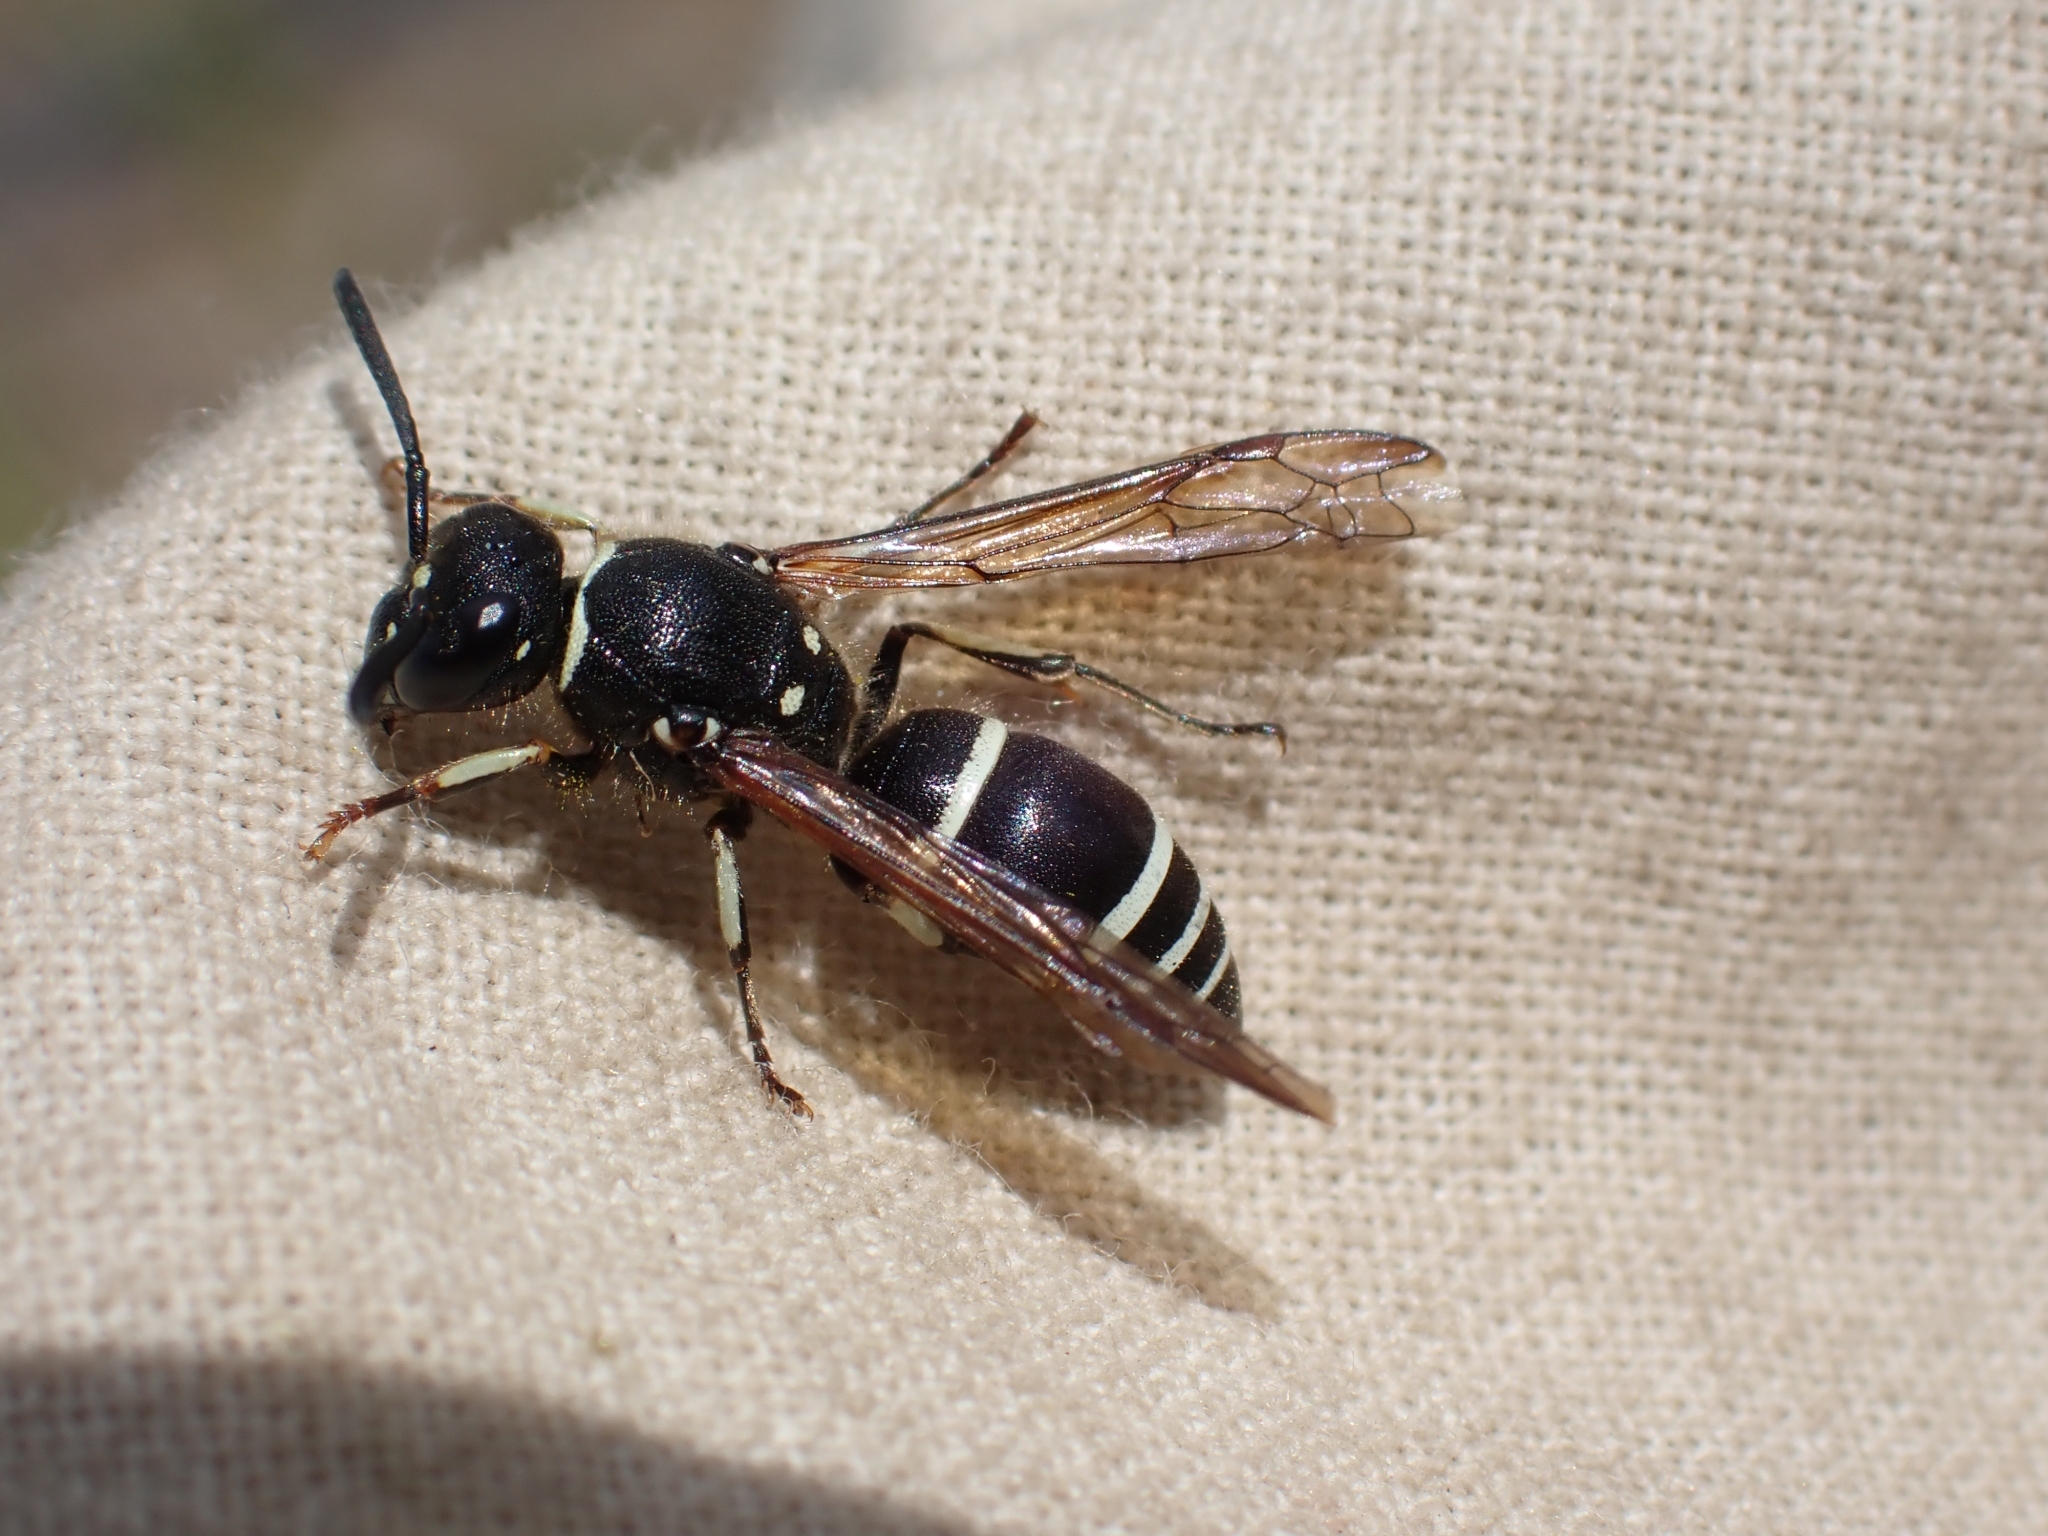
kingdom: Animalia
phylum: Arthropoda
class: Insecta
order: Hymenoptera
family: Vespidae
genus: Ancistrocerus
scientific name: Ancistrocerus albophaleratus
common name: White-banded potter wasp
